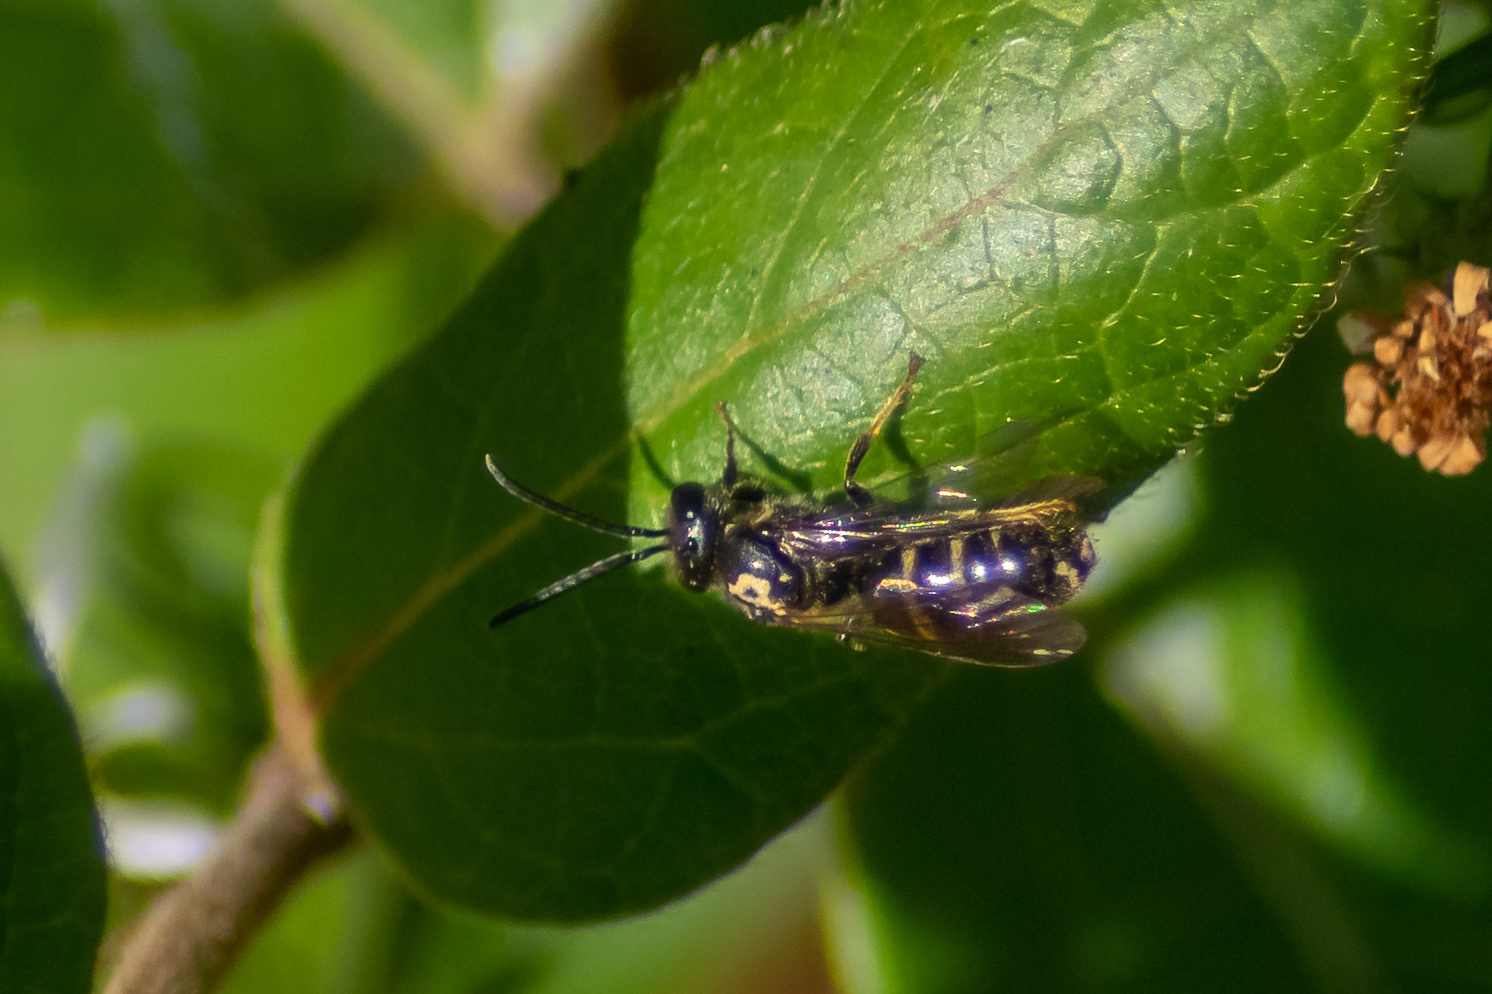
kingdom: Animalia
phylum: Arthropoda
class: Insecta
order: Hymenoptera
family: Halictidae
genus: Lasioglossum
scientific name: Lasioglossum fuscipenne
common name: Brown-winged sweat bee
